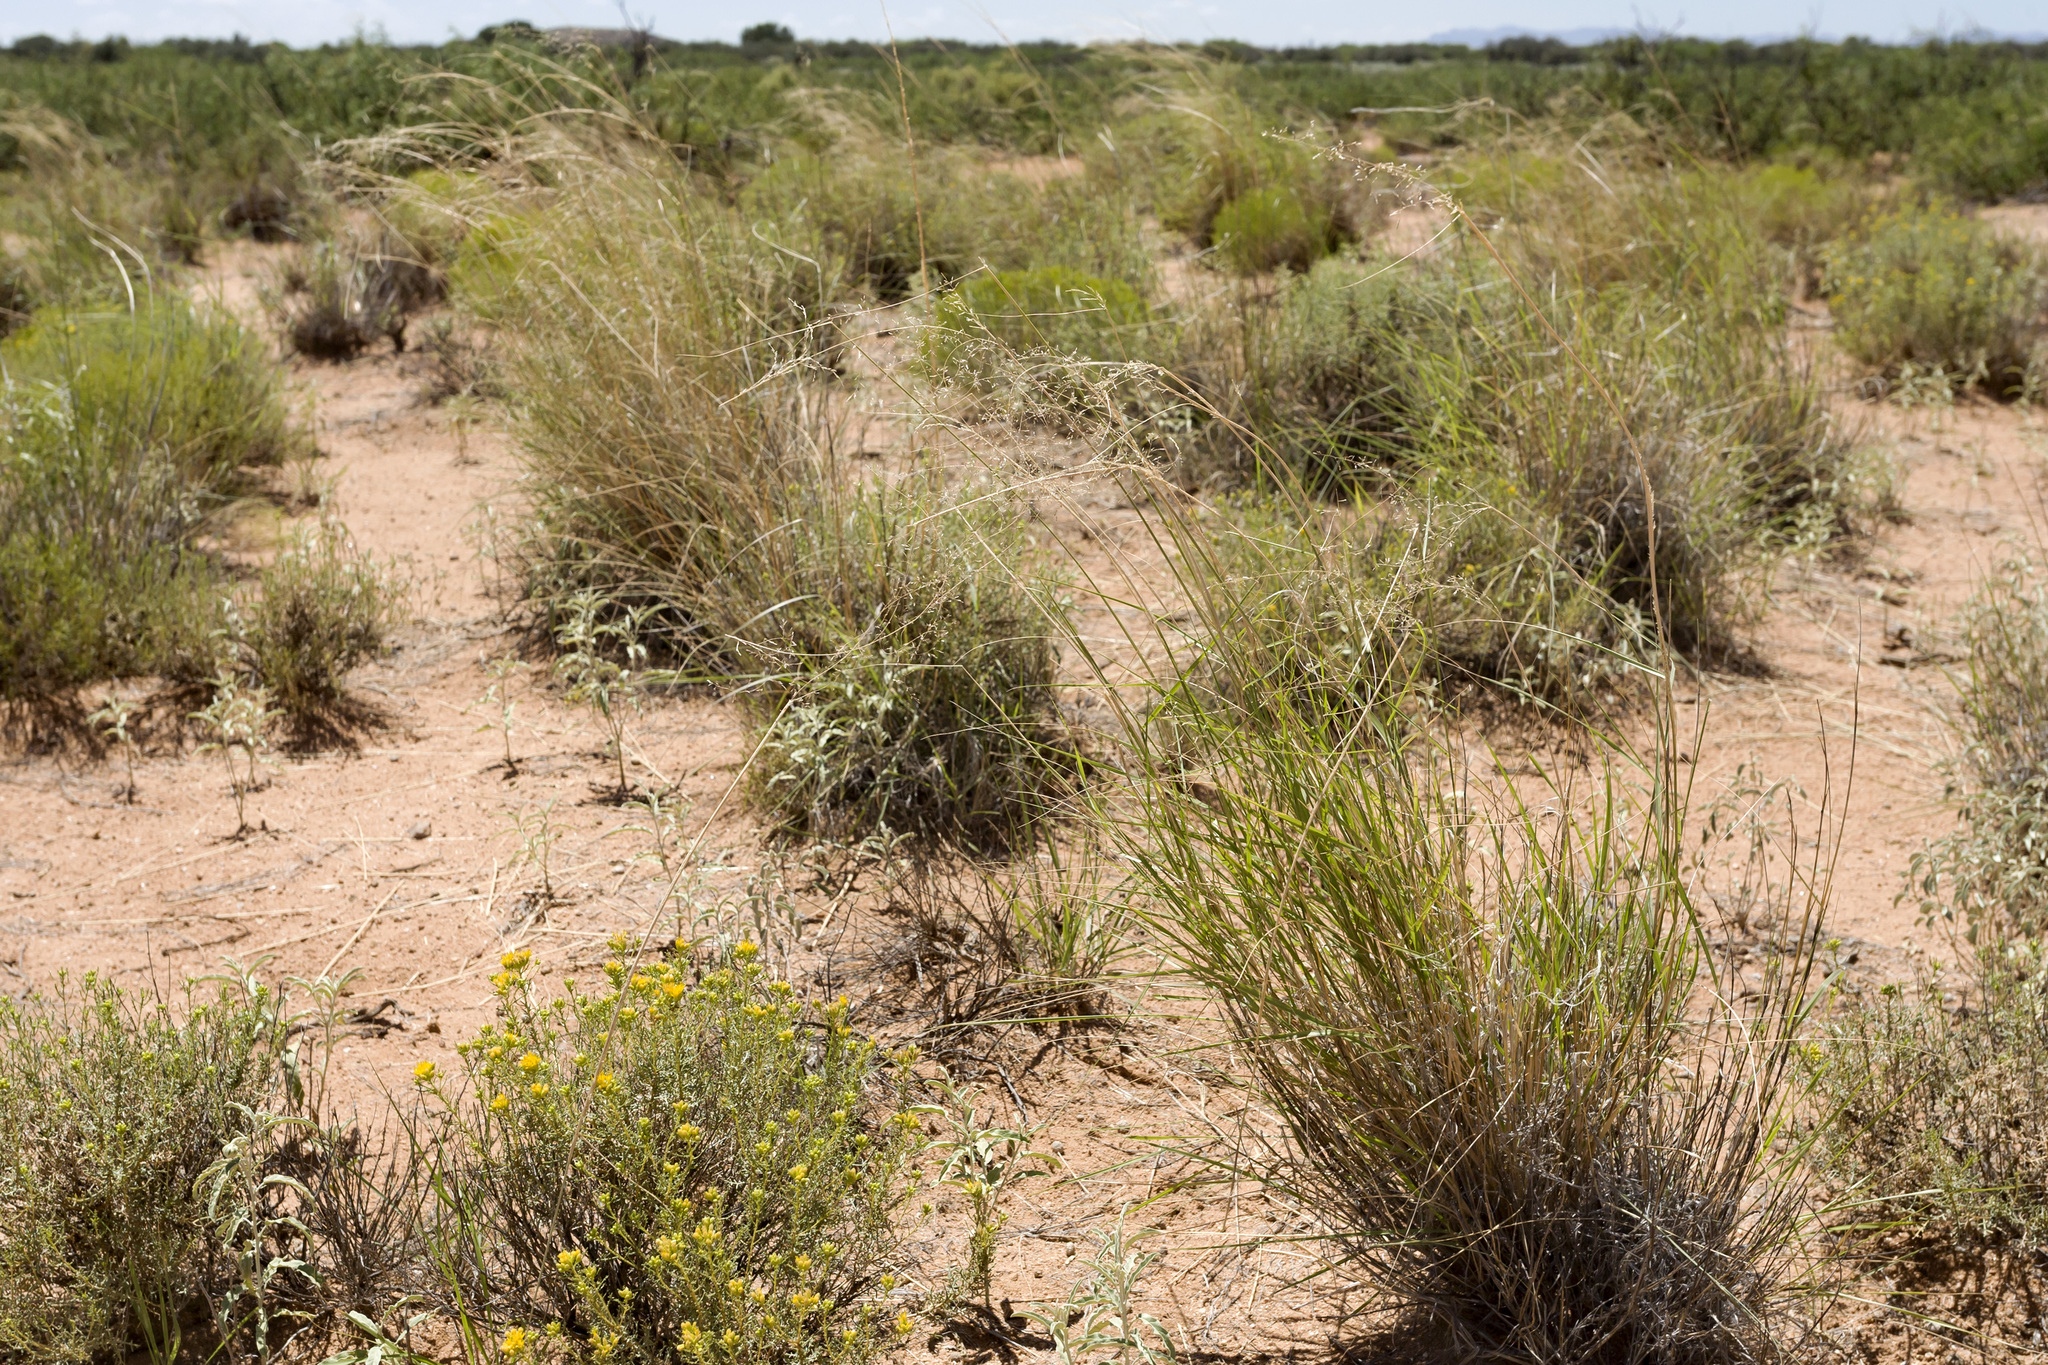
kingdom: Plantae
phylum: Tracheophyta
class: Liliopsida
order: Poales
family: Poaceae
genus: Sporobolus
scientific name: Sporobolus flexuosus
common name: Mesa dropseed
